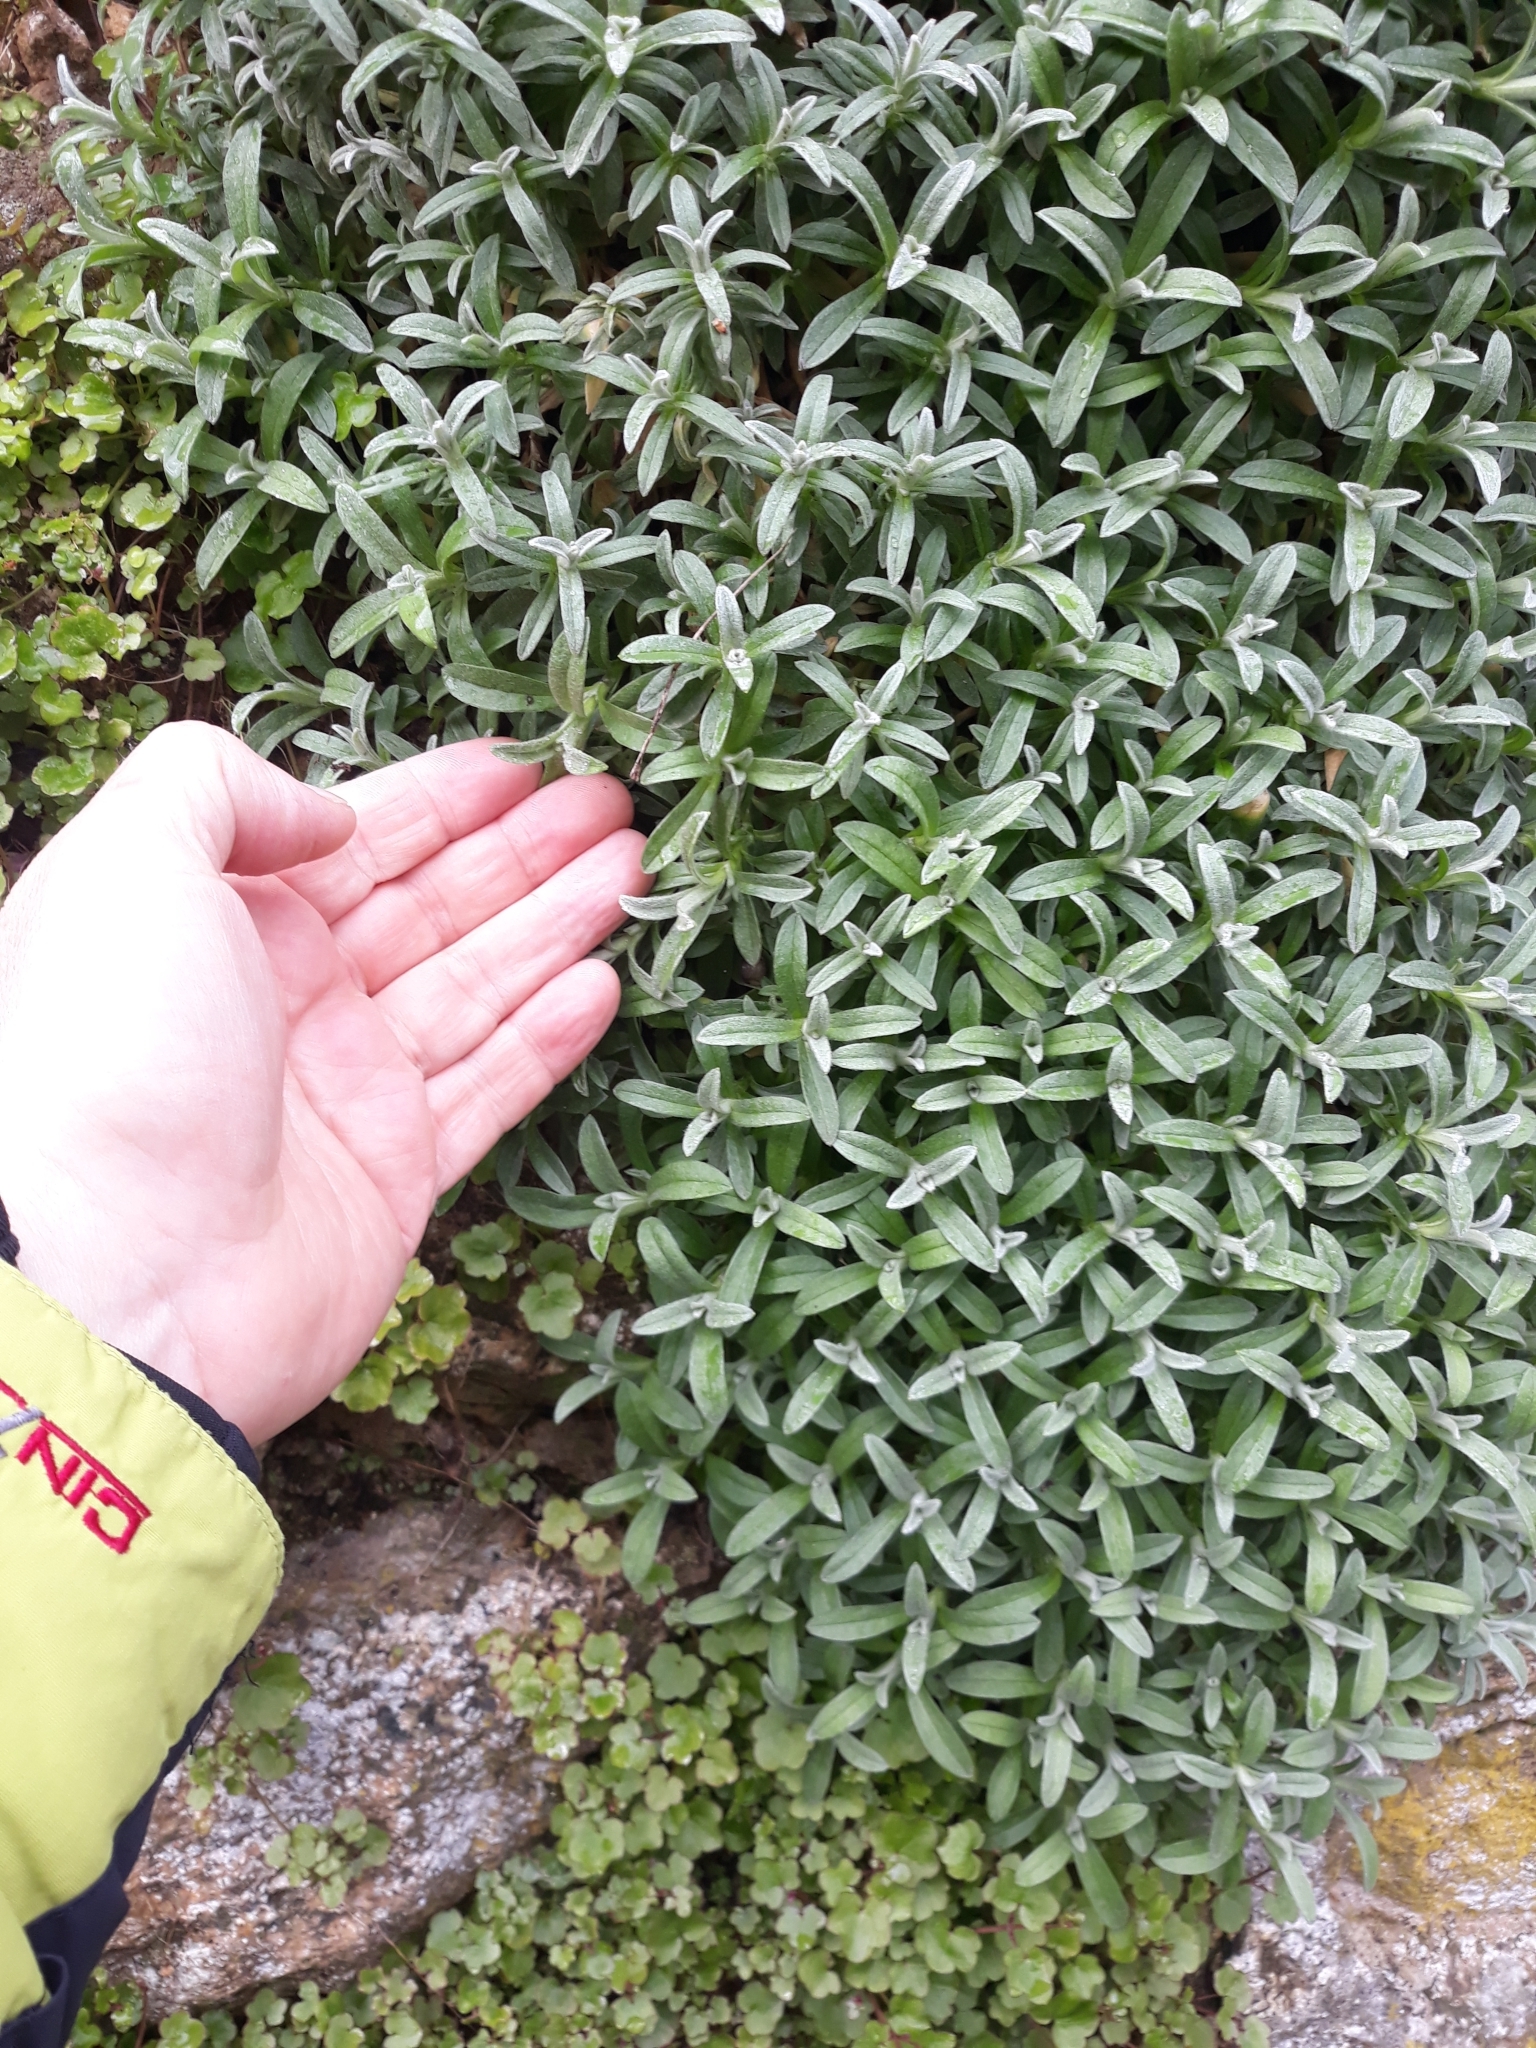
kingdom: Plantae
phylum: Tracheophyta
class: Magnoliopsida
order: Caryophyllales
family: Caryophyllaceae
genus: Cerastium
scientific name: Cerastium tomentosum
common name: Snow-in-summer
